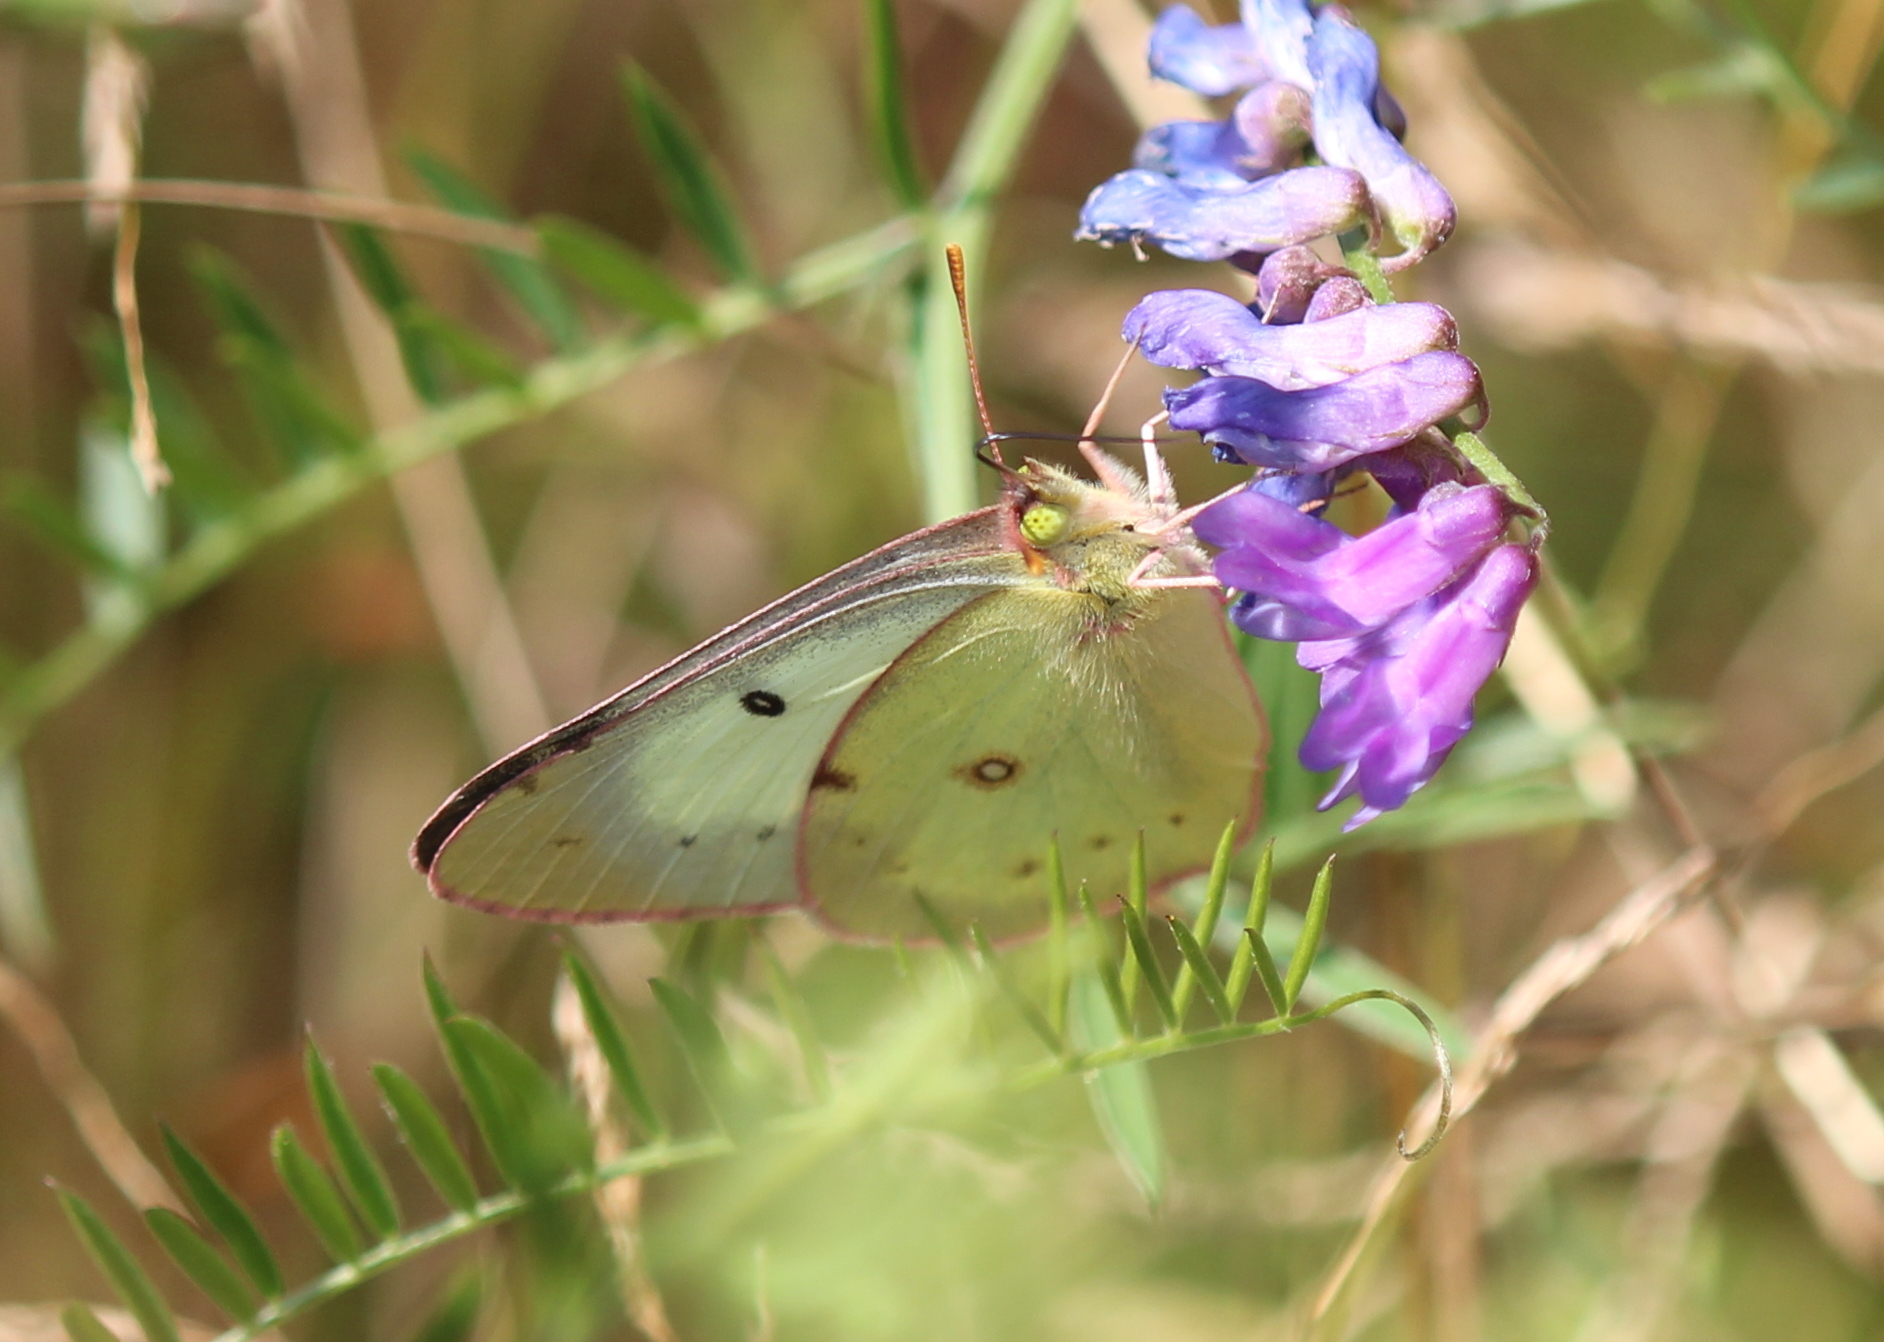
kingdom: Animalia
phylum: Arthropoda
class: Insecta
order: Lepidoptera
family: Pieridae
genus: Colias
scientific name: Colias philodice
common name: Clouded sulphur
